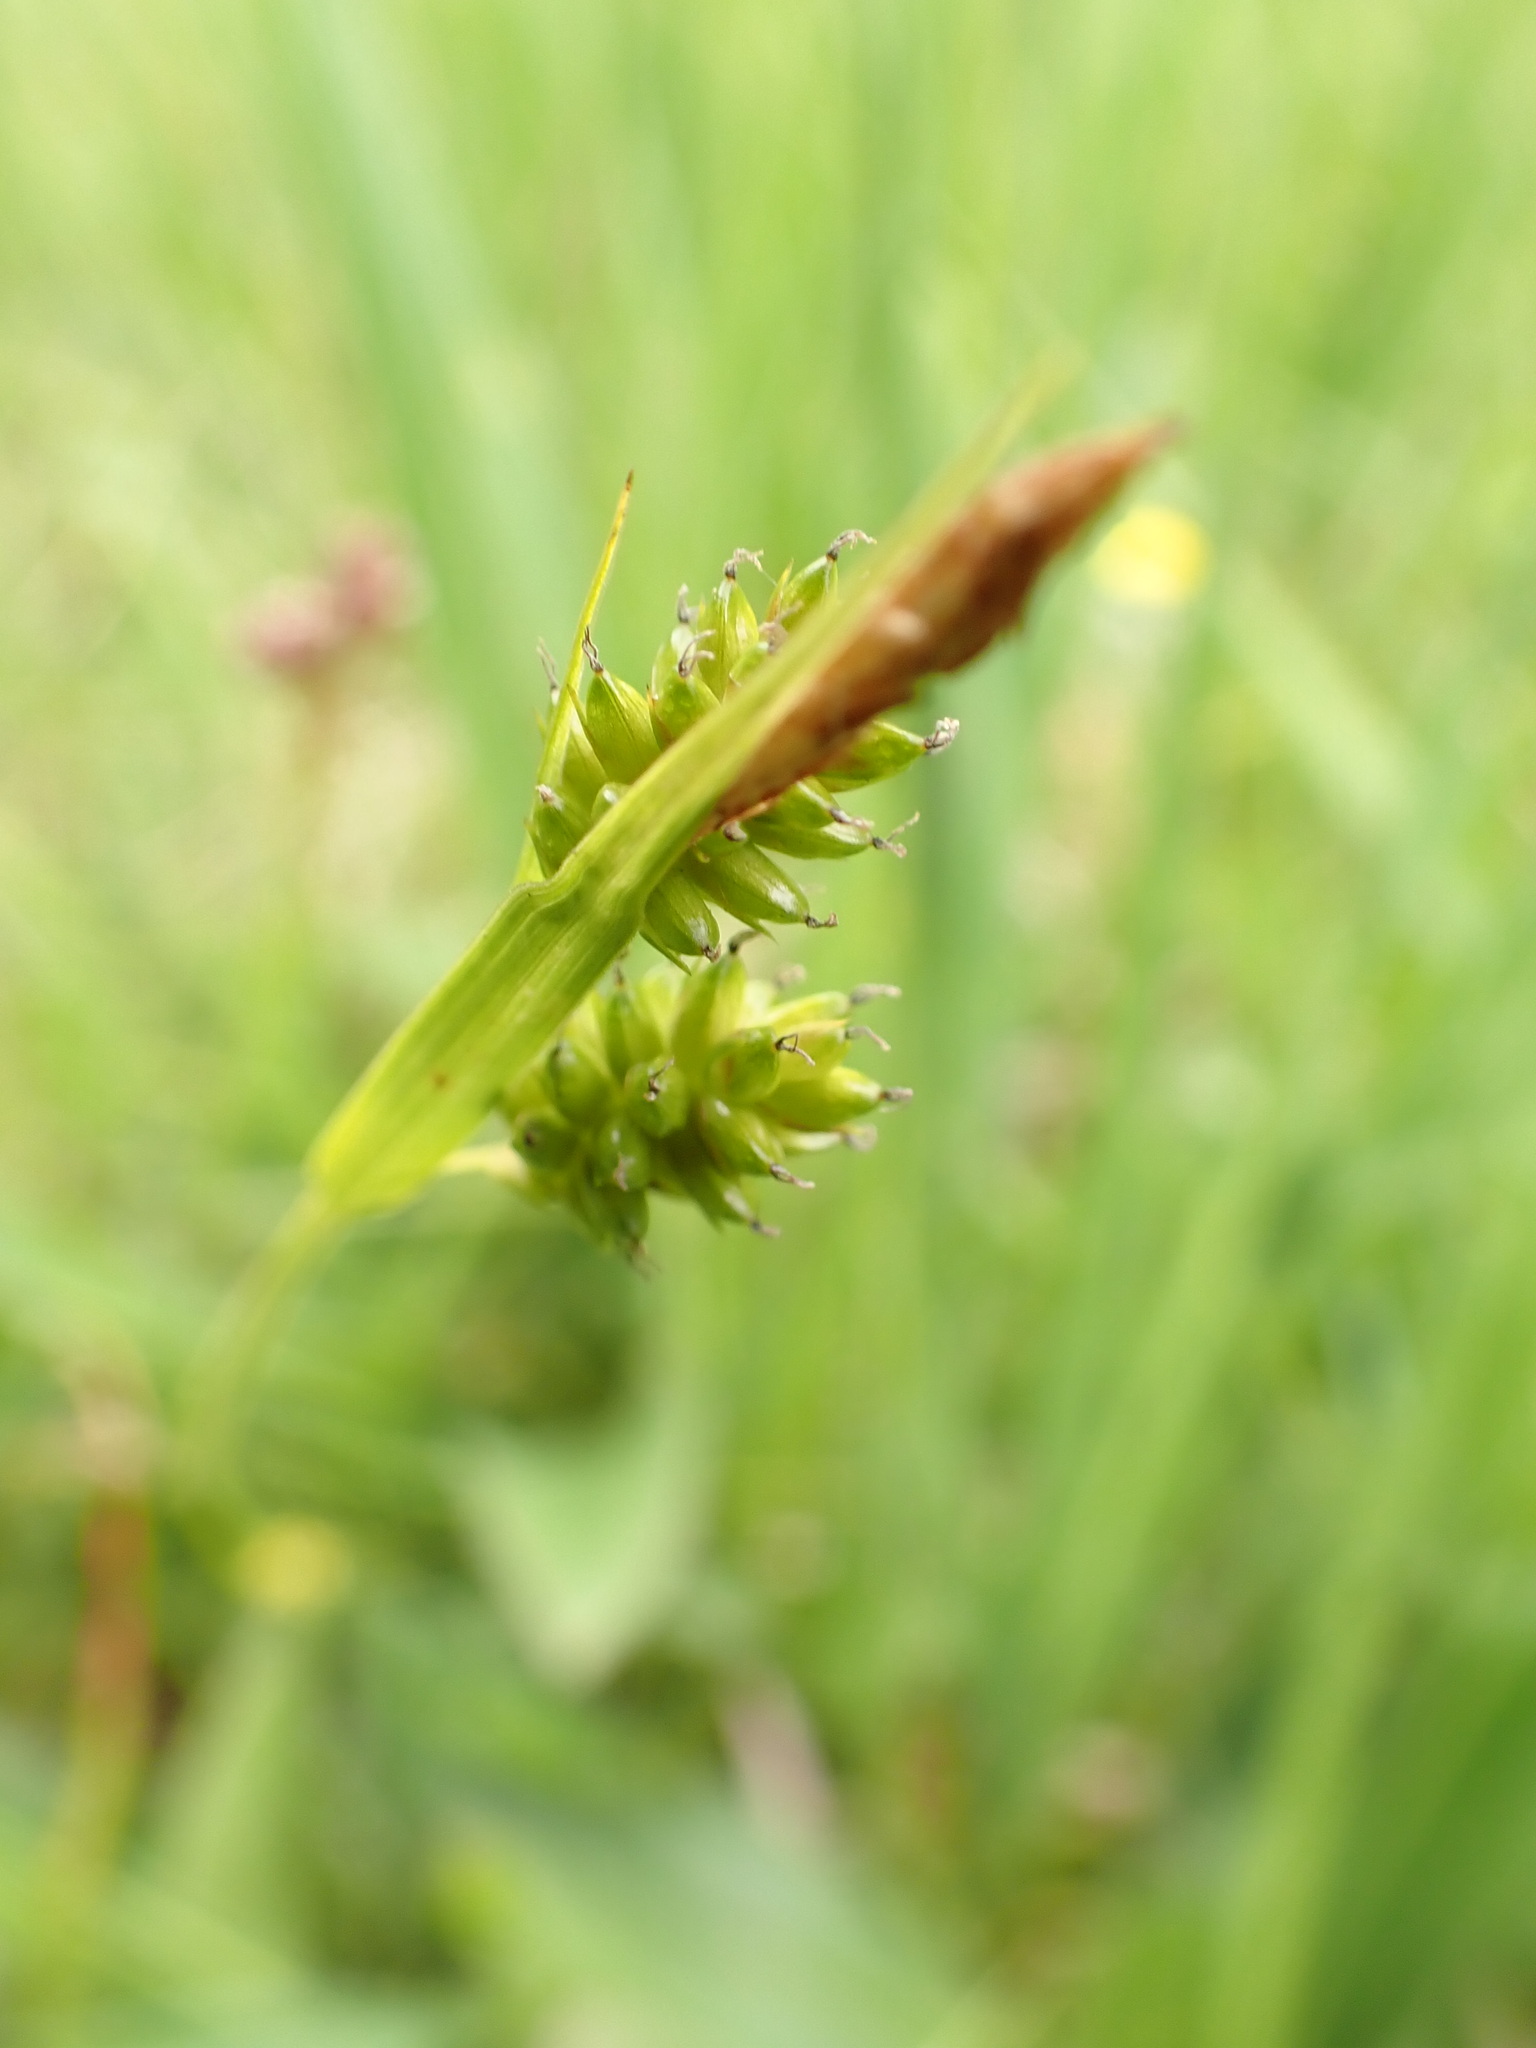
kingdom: Plantae
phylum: Tracheophyta
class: Liliopsida
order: Poales
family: Cyperaceae
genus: Carex
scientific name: Carex pallescens
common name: Pale sedge
